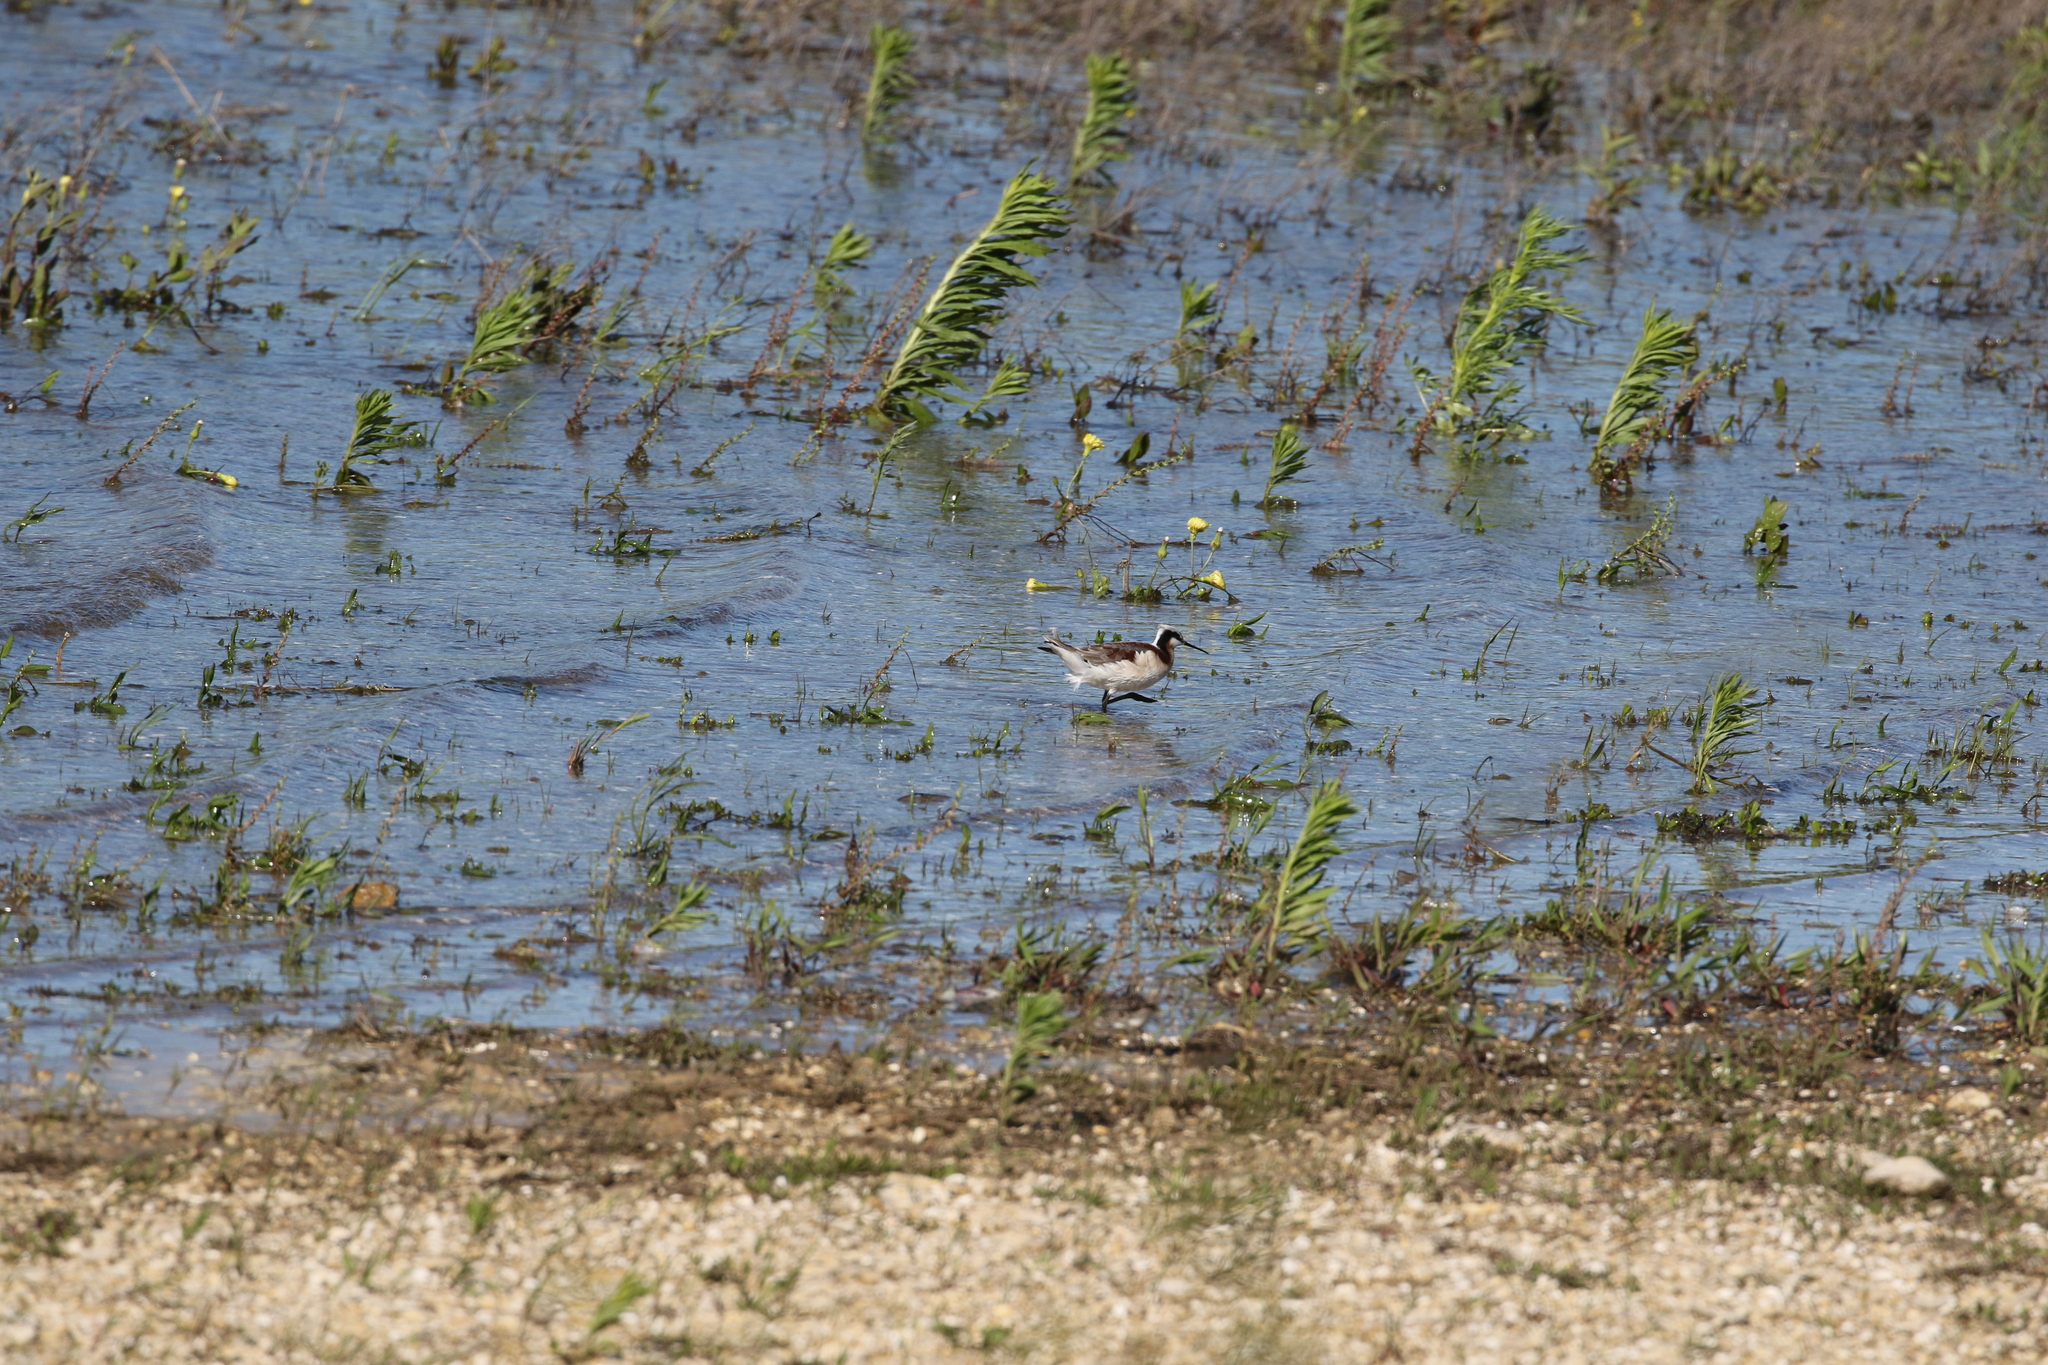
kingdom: Animalia
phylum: Chordata
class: Aves
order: Charadriiformes
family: Scolopacidae
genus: Phalaropus
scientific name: Phalaropus tricolor
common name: Wilson's phalarope
